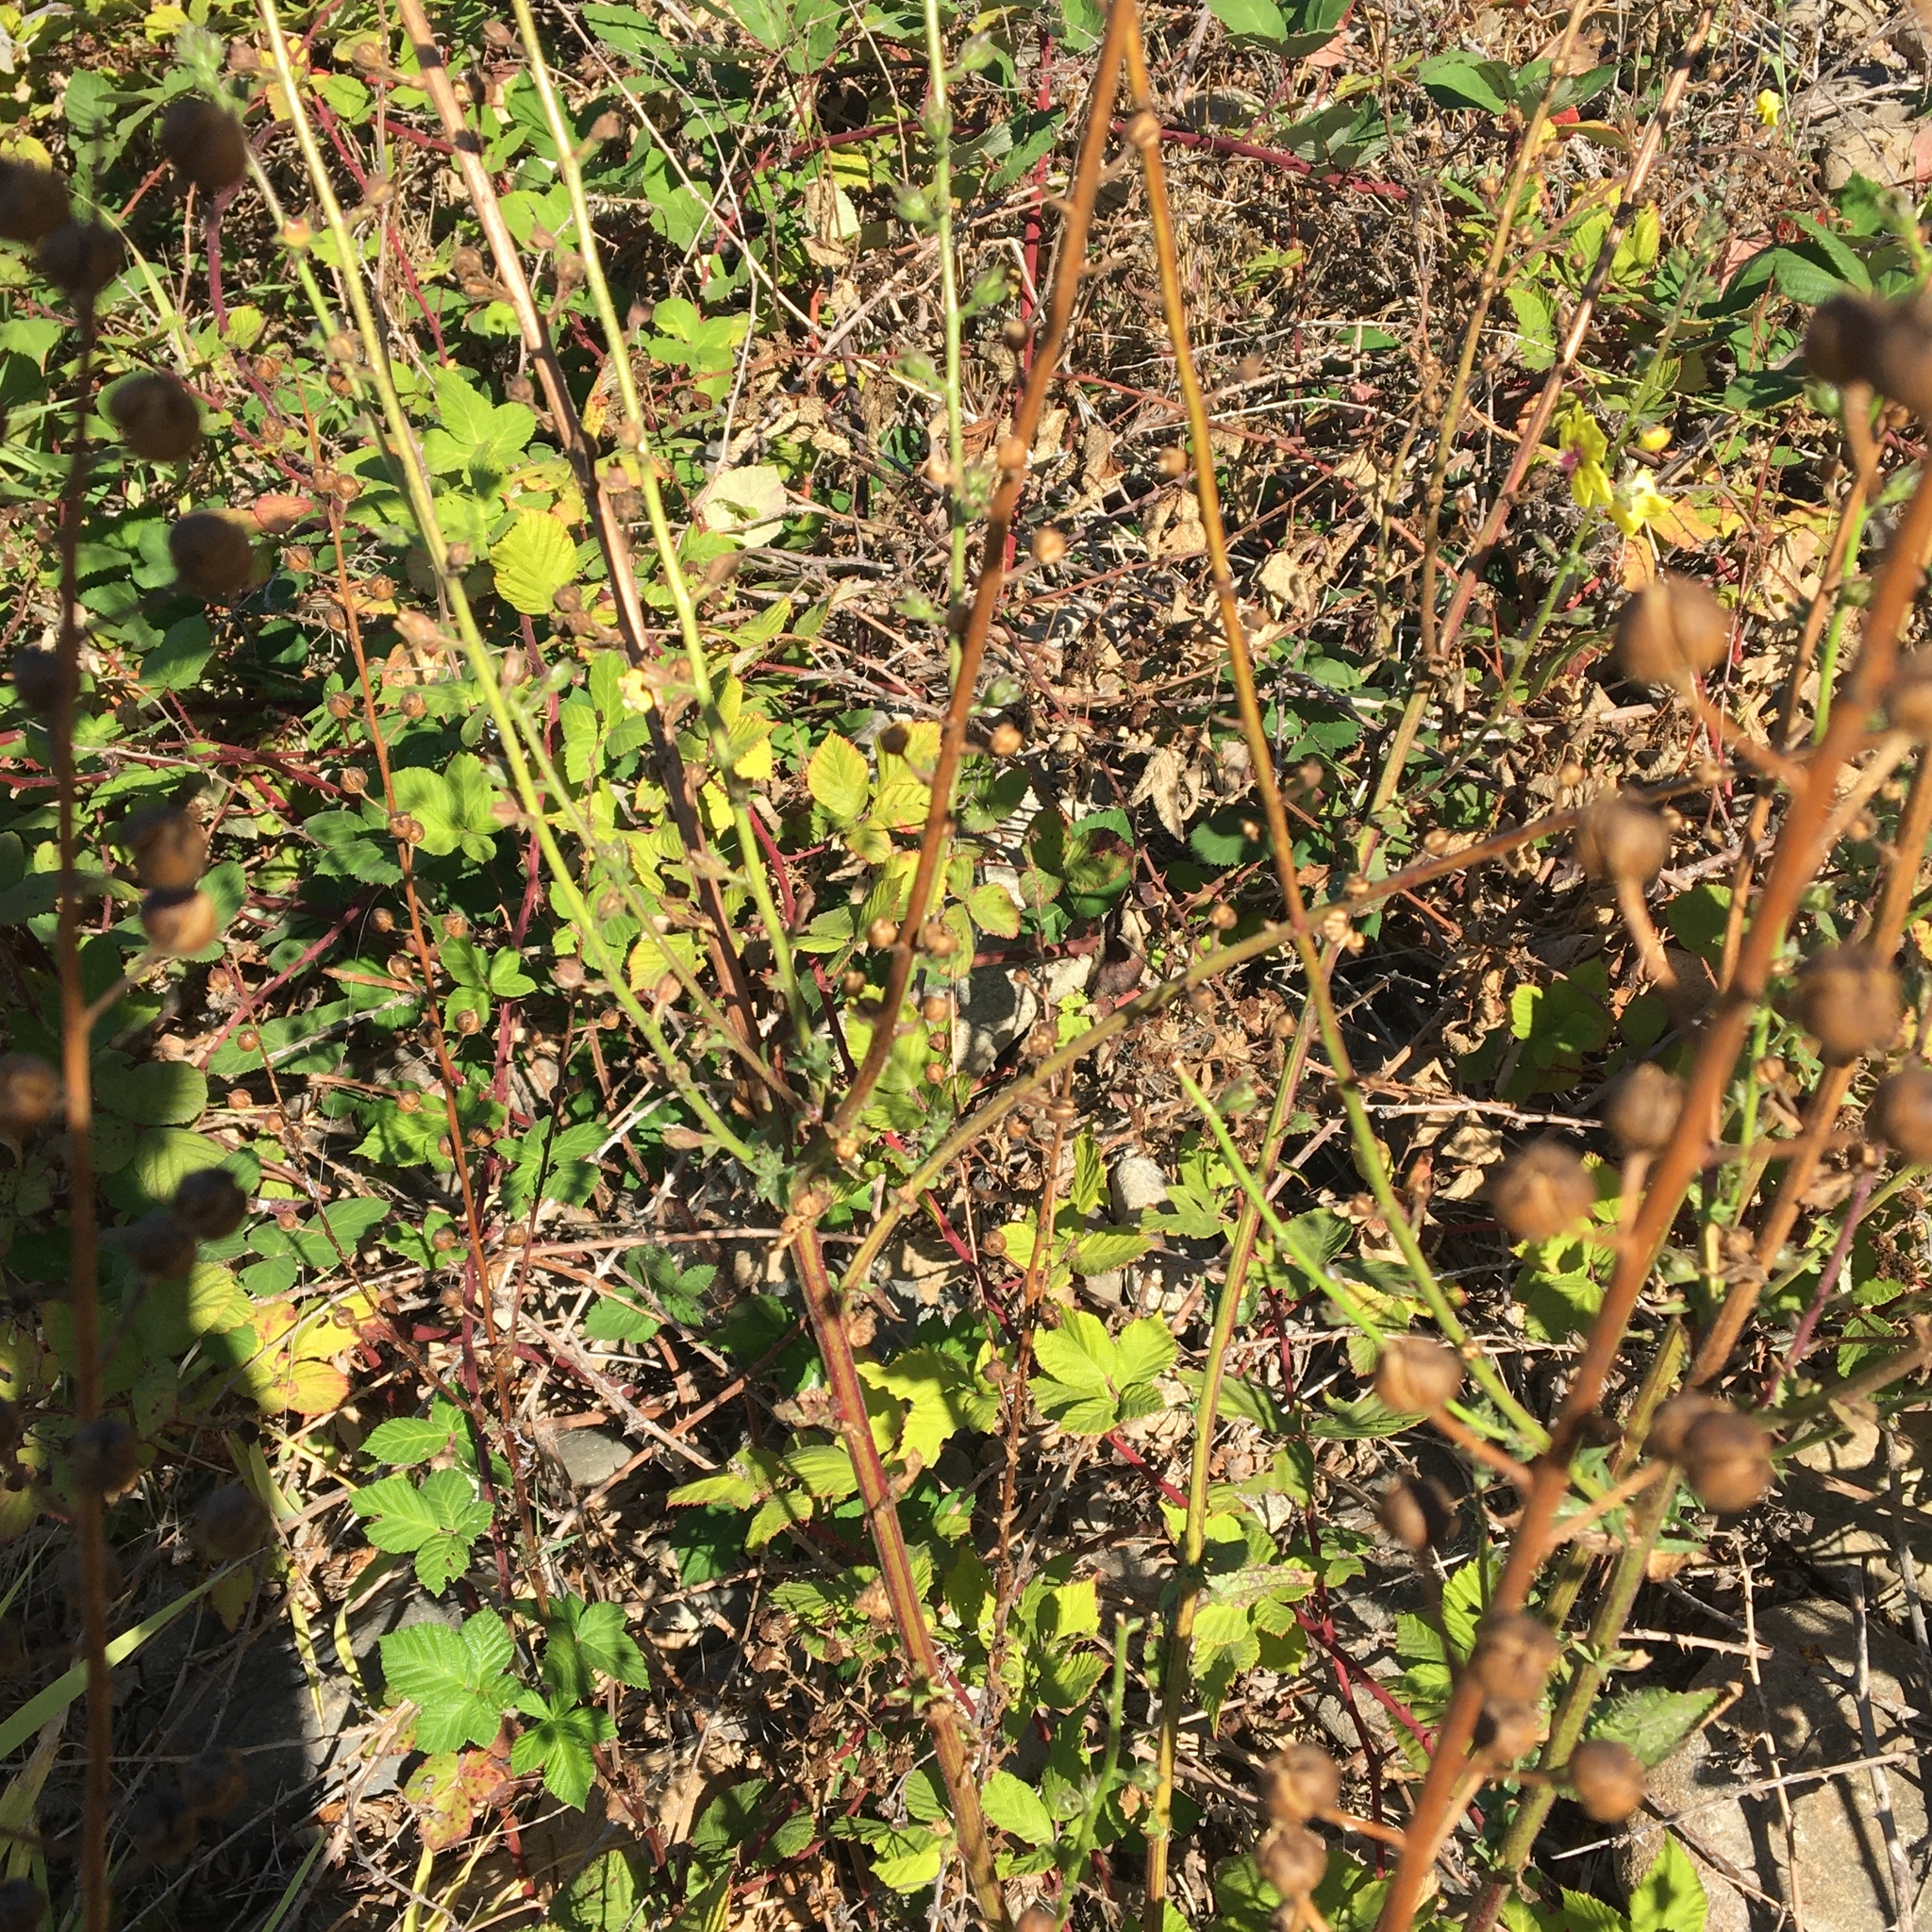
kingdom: Plantae
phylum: Tracheophyta
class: Magnoliopsida
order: Lamiales
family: Scrophulariaceae
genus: Verbascum
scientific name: Verbascum blattaria
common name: Moth mullein
